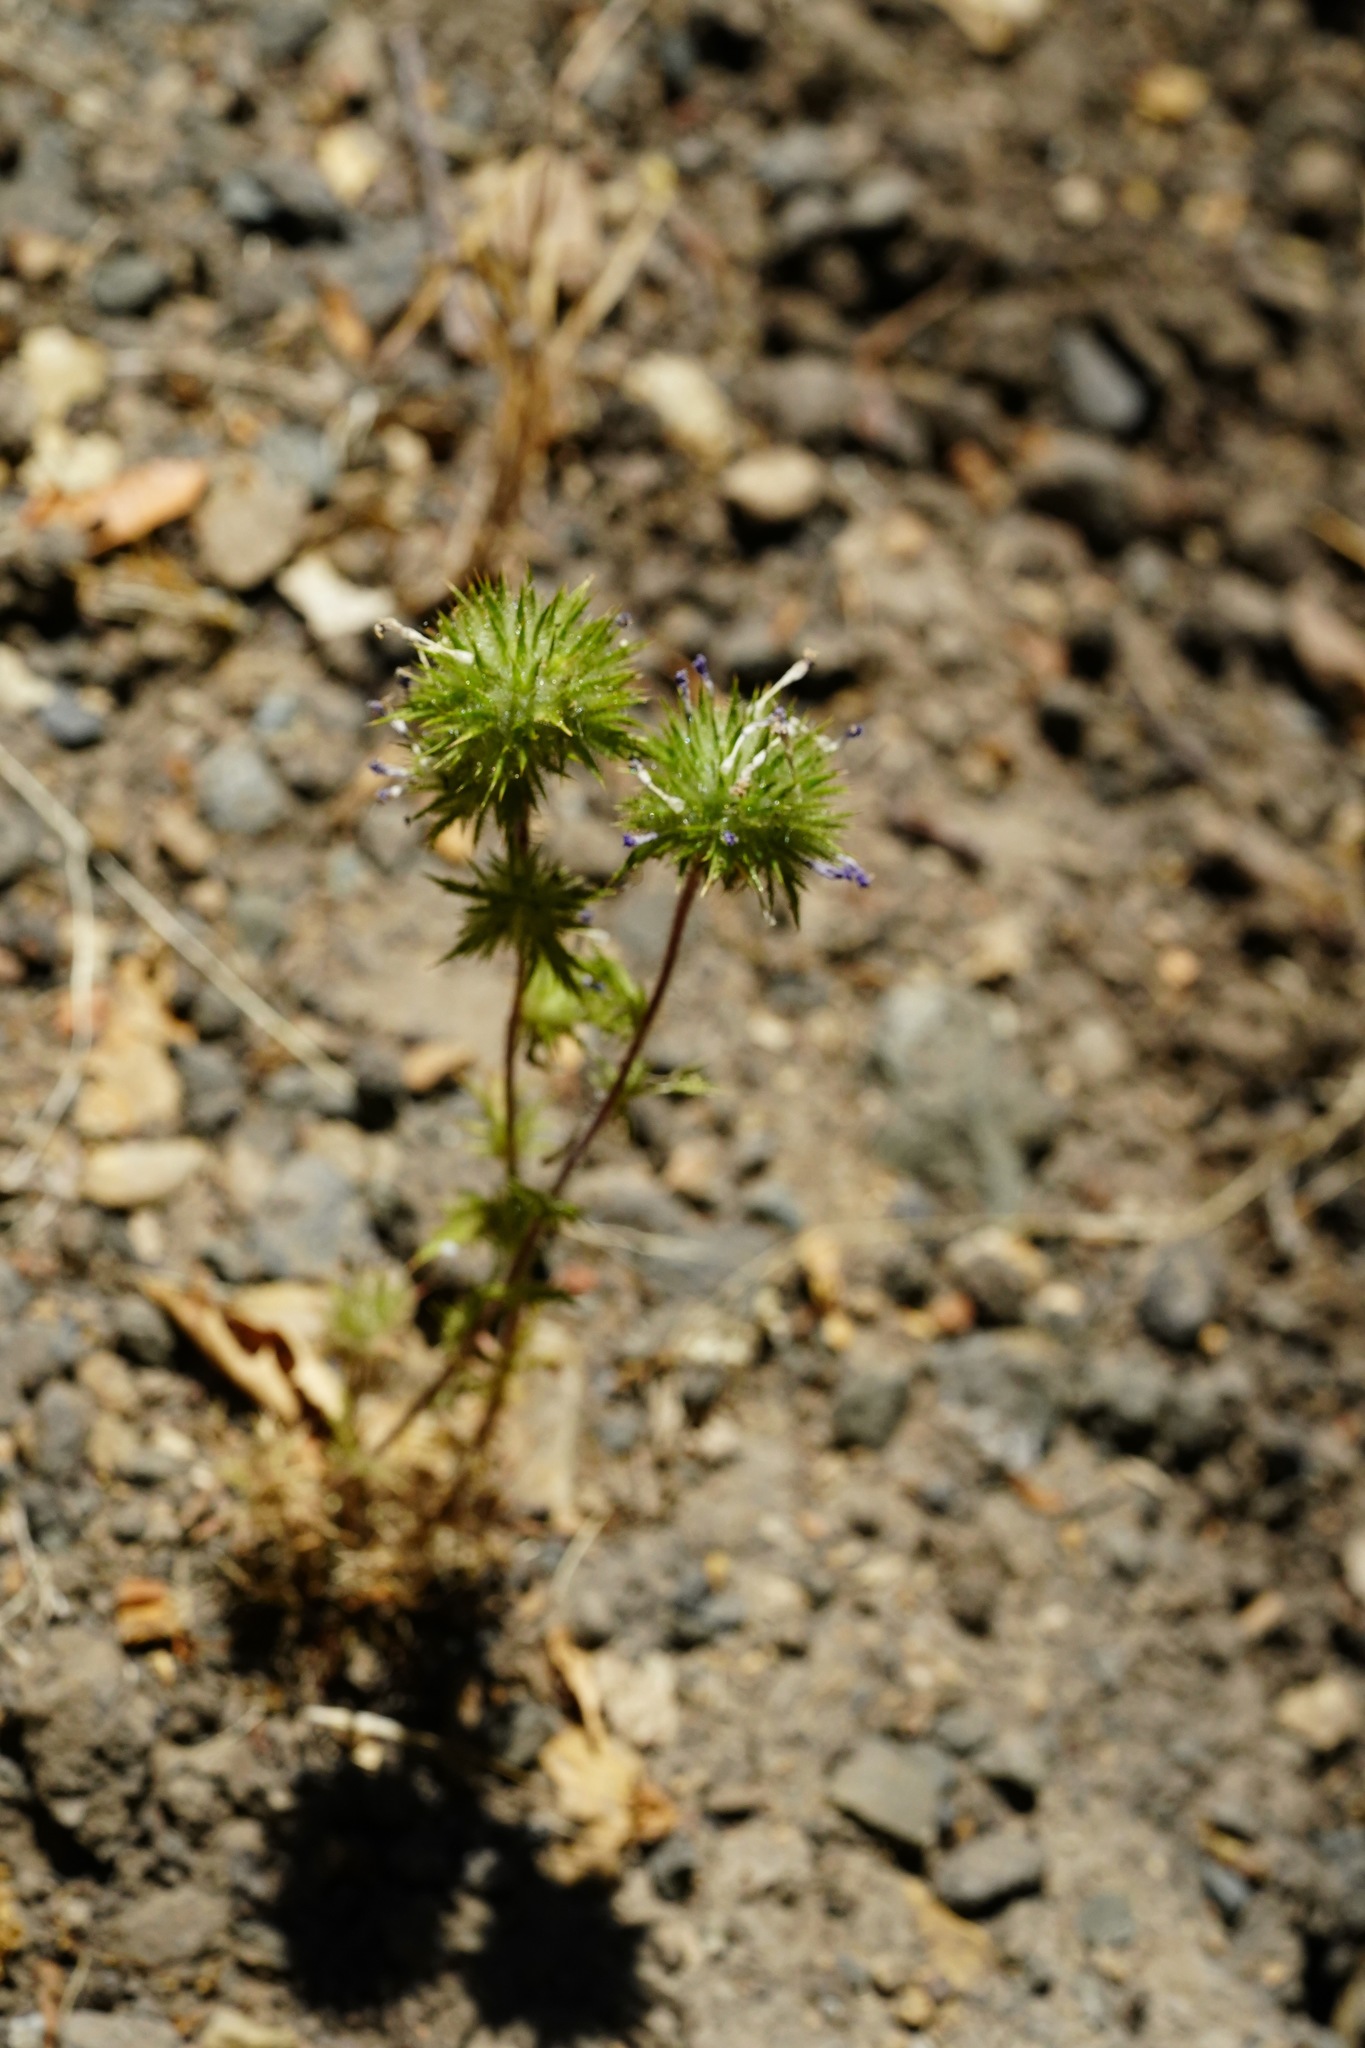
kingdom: Plantae
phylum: Tracheophyta
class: Magnoliopsida
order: Ericales
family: Polemoniaceae
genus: Navarretia
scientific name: Navarretia squarrosa
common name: Skunkweed
